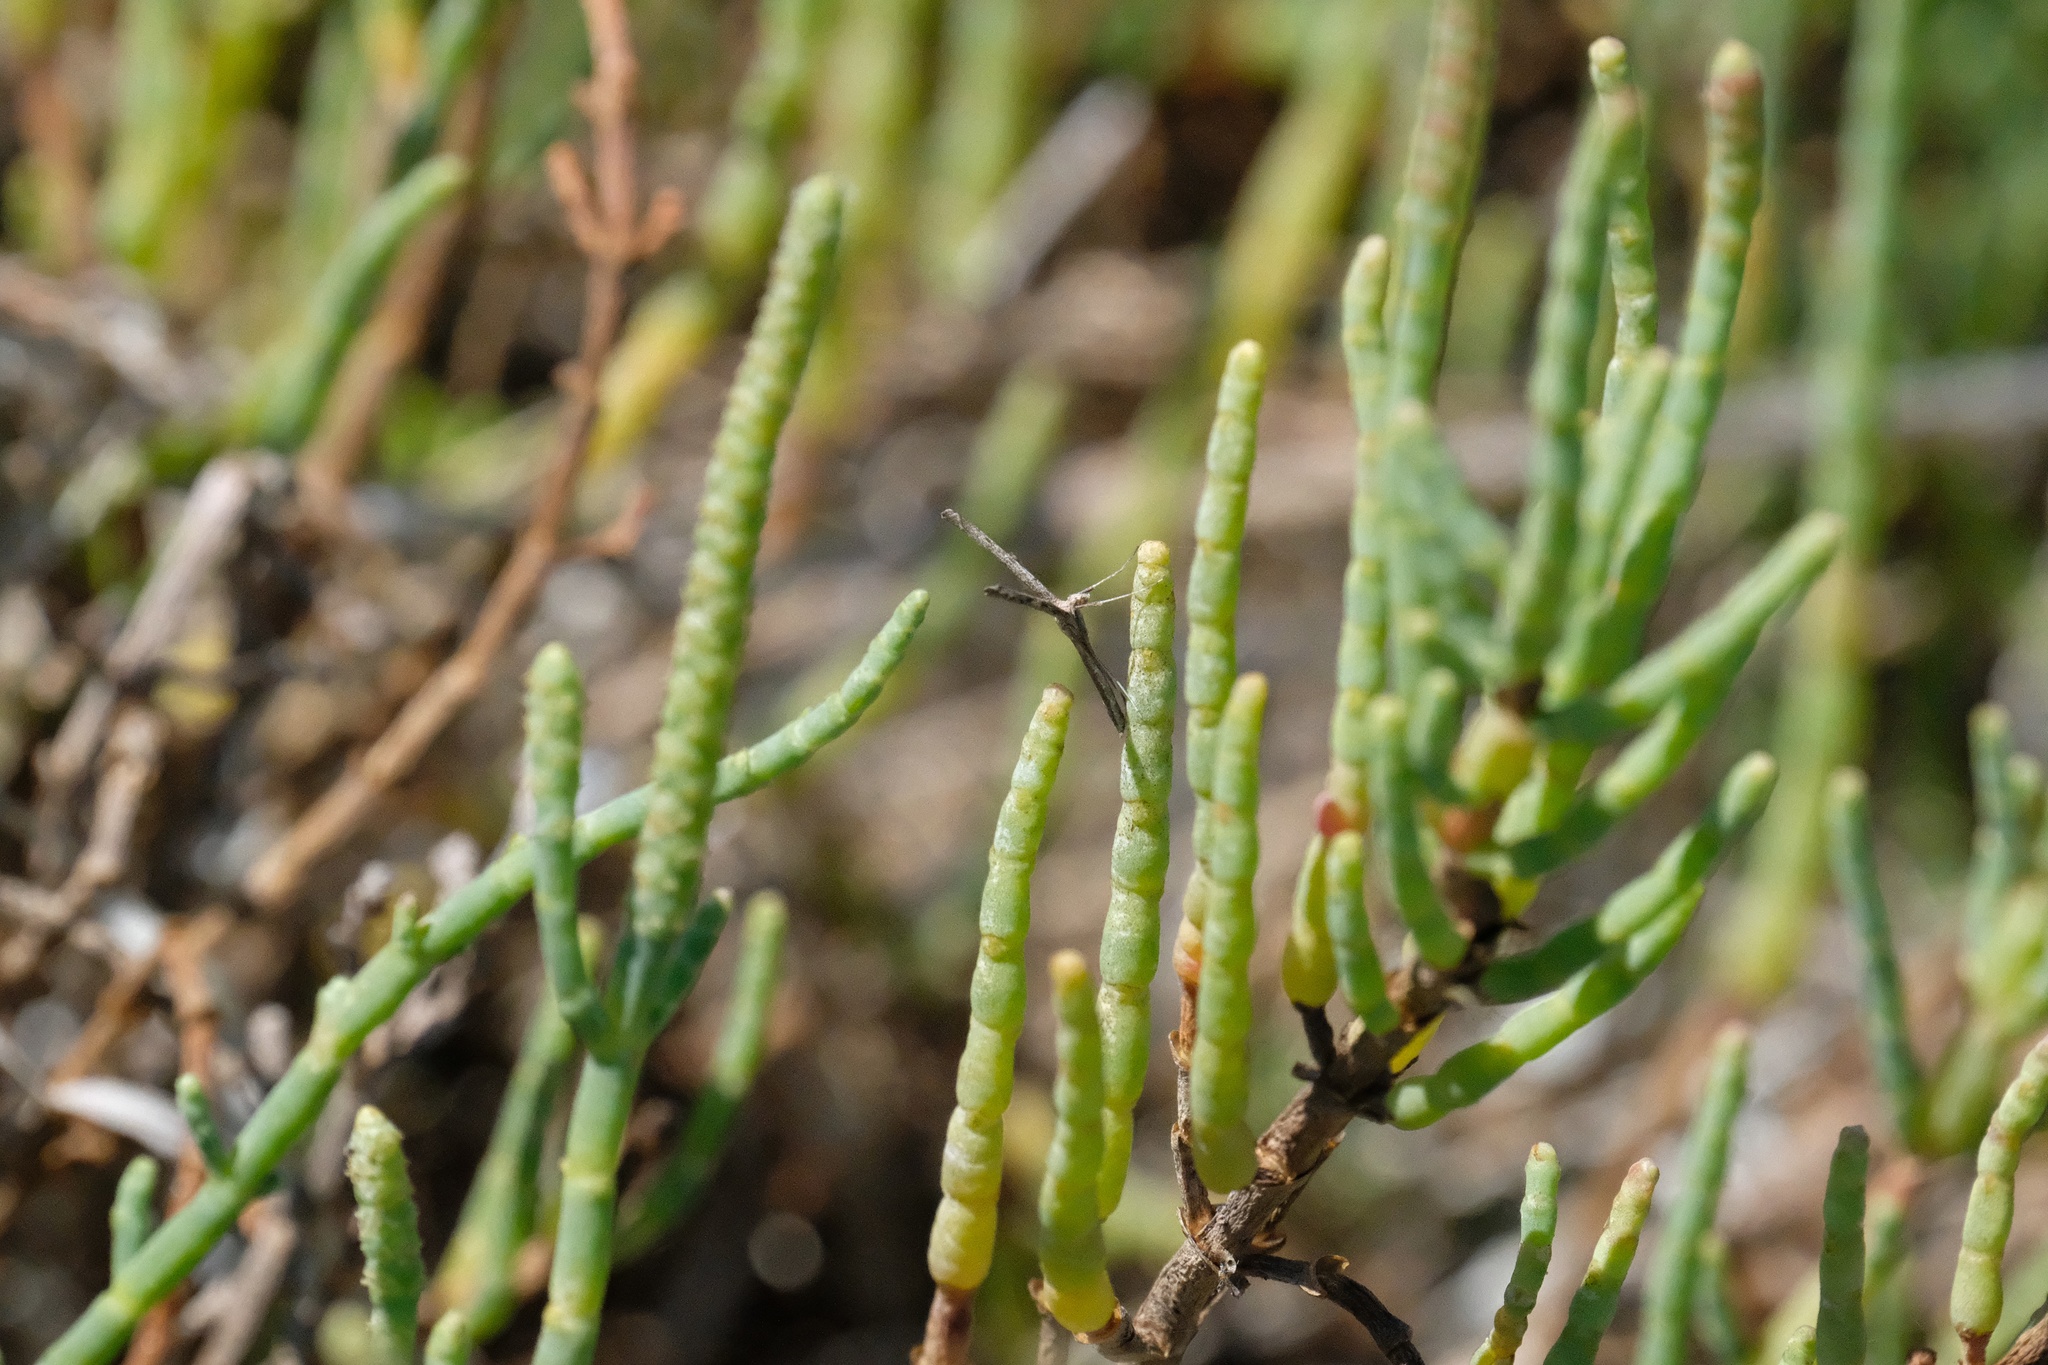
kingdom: Animalia
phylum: Arthropoda
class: Insecta
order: Lepidoptera
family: Pterophoridae
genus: Agdistis
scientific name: Agdistis americana
